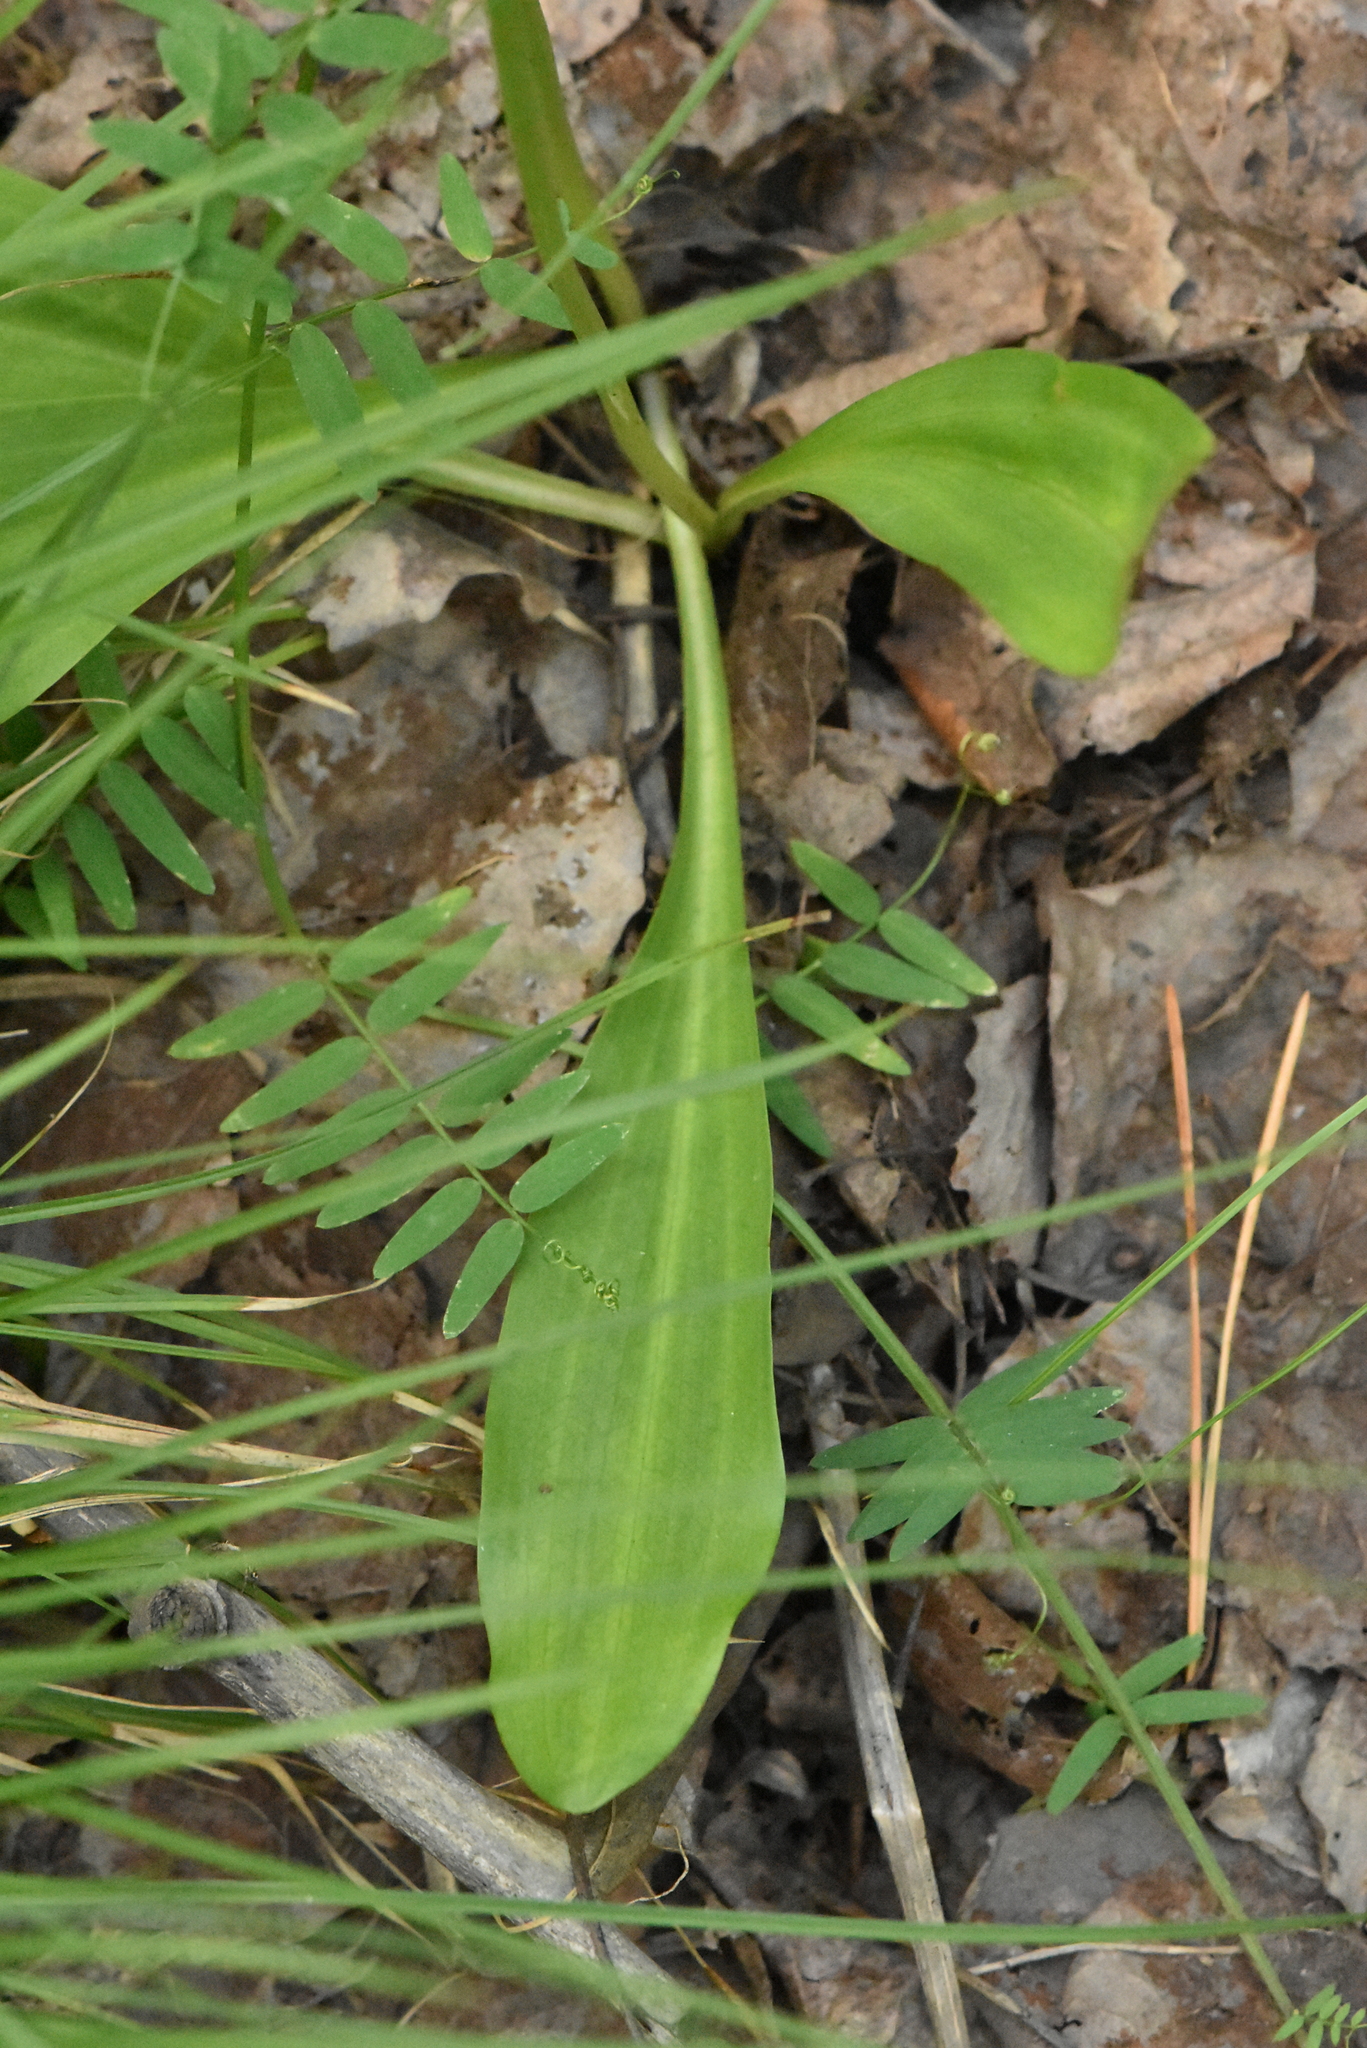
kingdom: Plantae
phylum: Tracheophyta
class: Liliopsida
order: Asparagales
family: Orchidaceae
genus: Platanthera
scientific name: Platanthera bifolia
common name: Lesser butterfly-orchid
